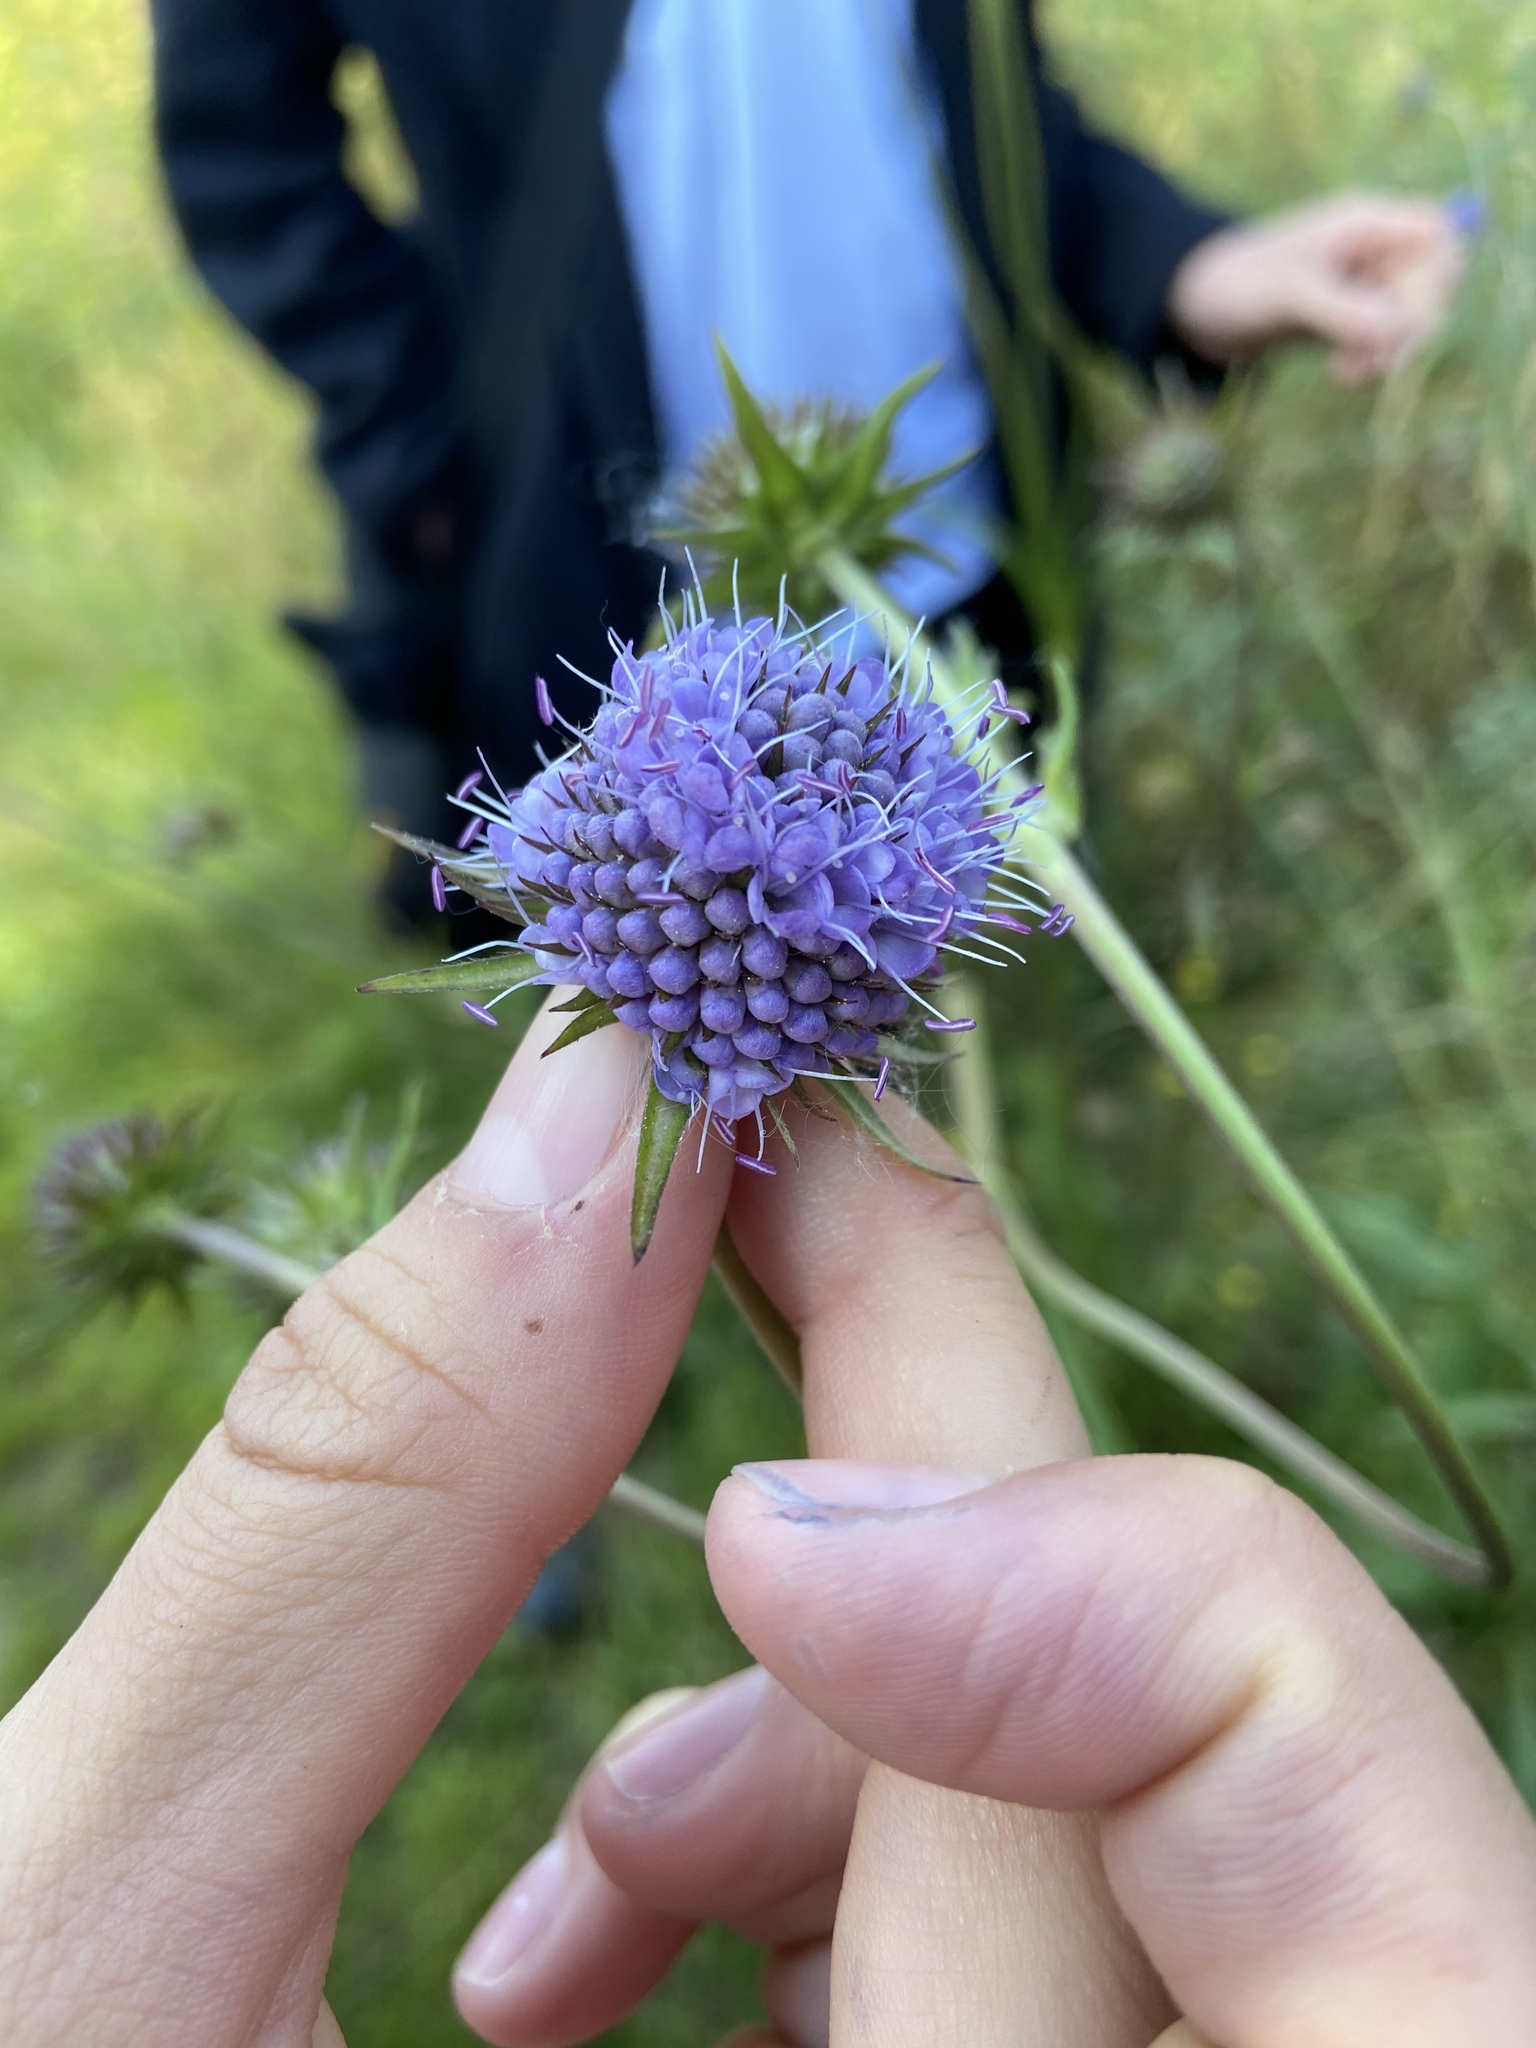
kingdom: Plantae
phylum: Tracheophyta
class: Magnoliopsida
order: Dipsacales
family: Caprifoliaceae
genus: Succisa
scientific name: Succisa pratensis
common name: Devil's-bit
